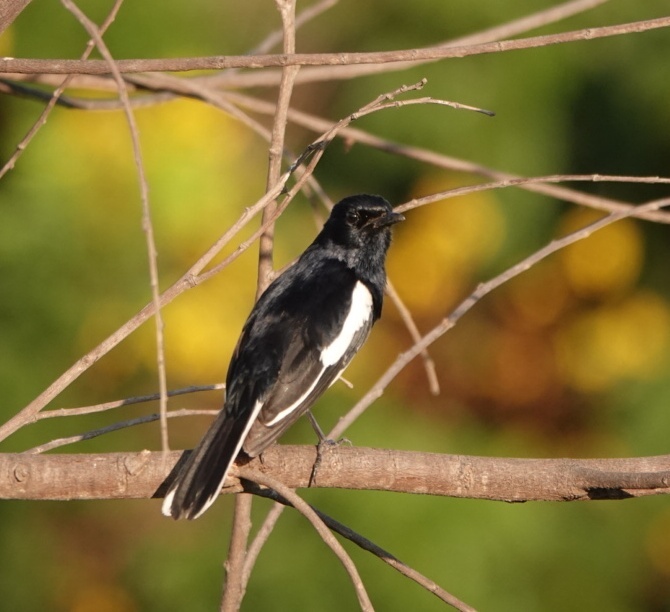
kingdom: Animalia
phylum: Chordata
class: Aves
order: Passeriformes
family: Muscicapidae
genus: Copsychus
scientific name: Copsychus saularis
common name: Oriental magpie-robin
